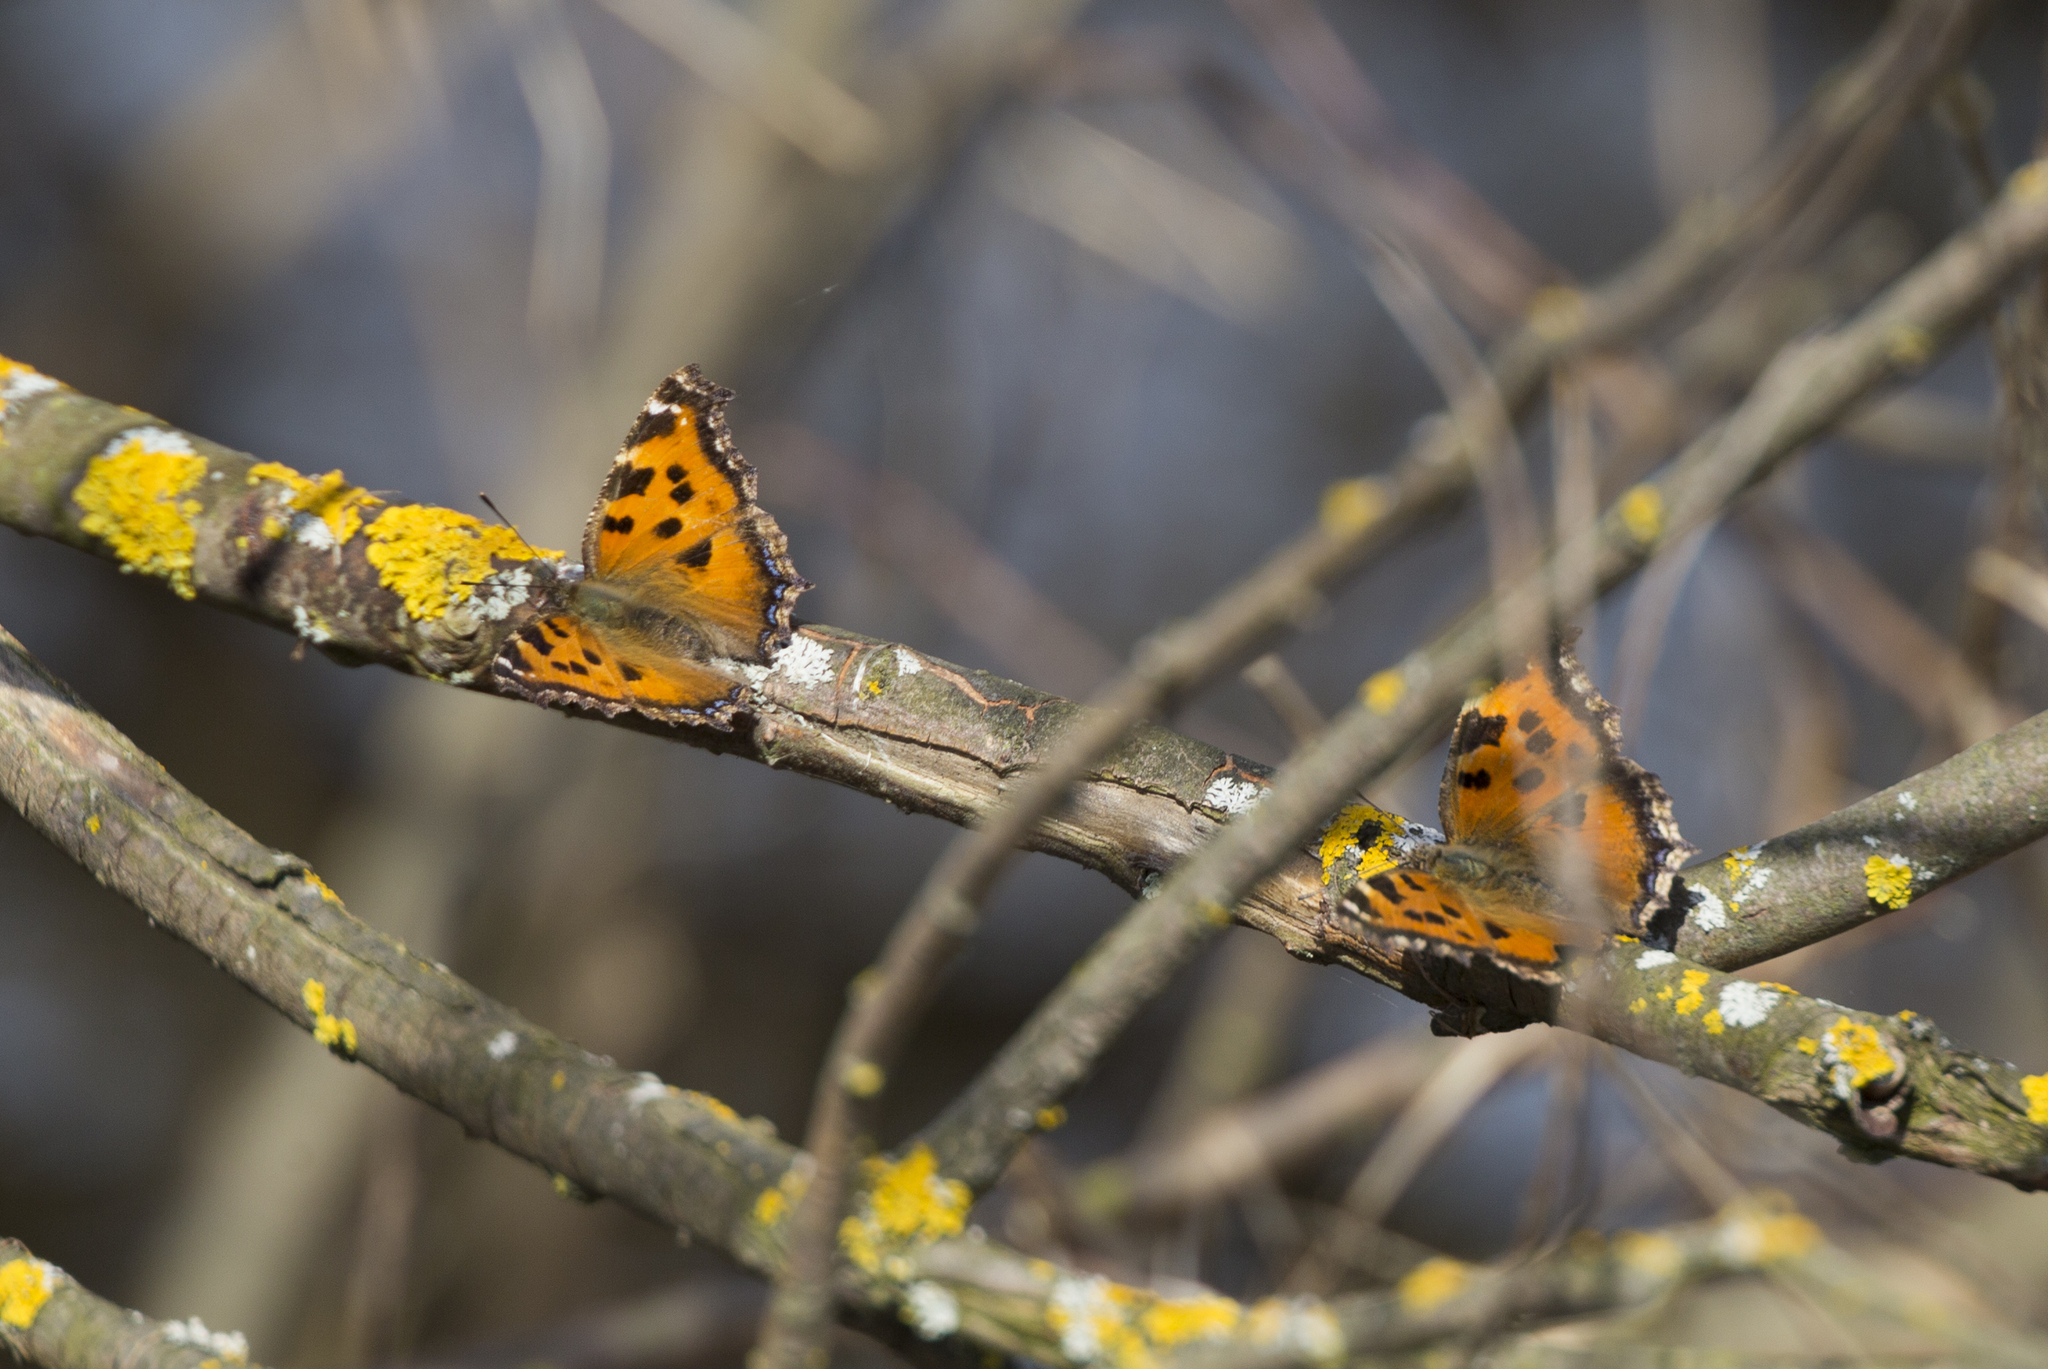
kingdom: Animalia
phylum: Arthropoda
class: Insecta
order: Lepidoptera
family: Nymphalidae
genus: Nymphalis
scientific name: Nymphalis xanthomelas
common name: Scarce tortoiseshell
